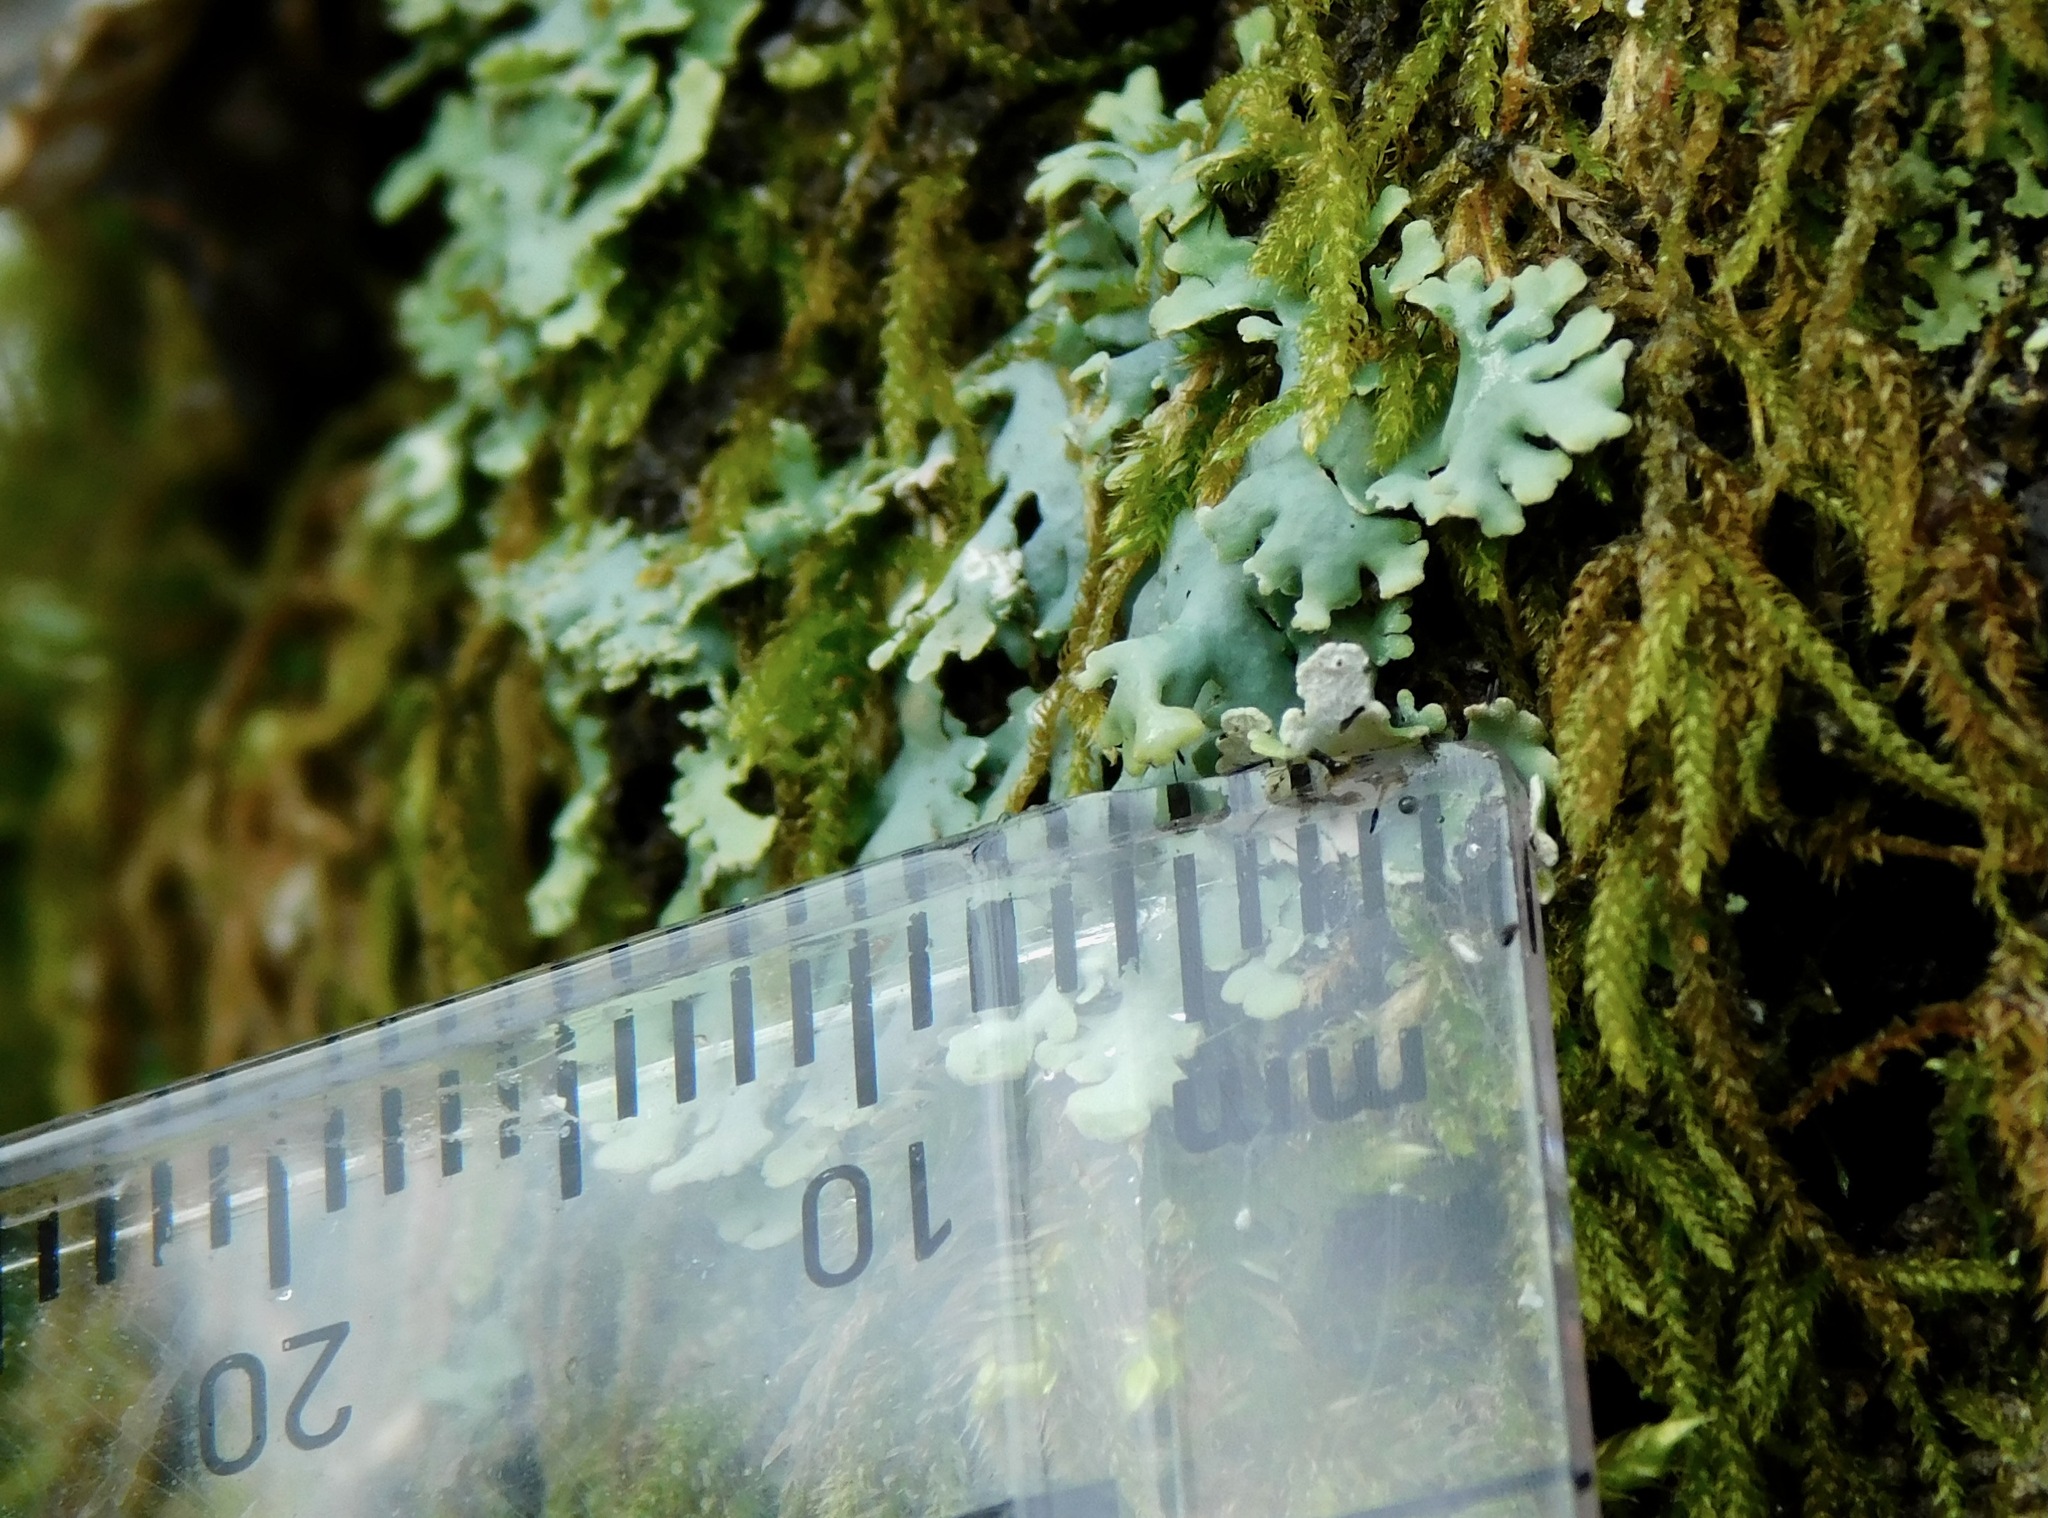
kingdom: Fungi
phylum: Ascomycota
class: Lecanoromycetes
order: Caliciales
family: Physciaceae
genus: Polyblastidium
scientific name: Polyblastidium casarettianum
